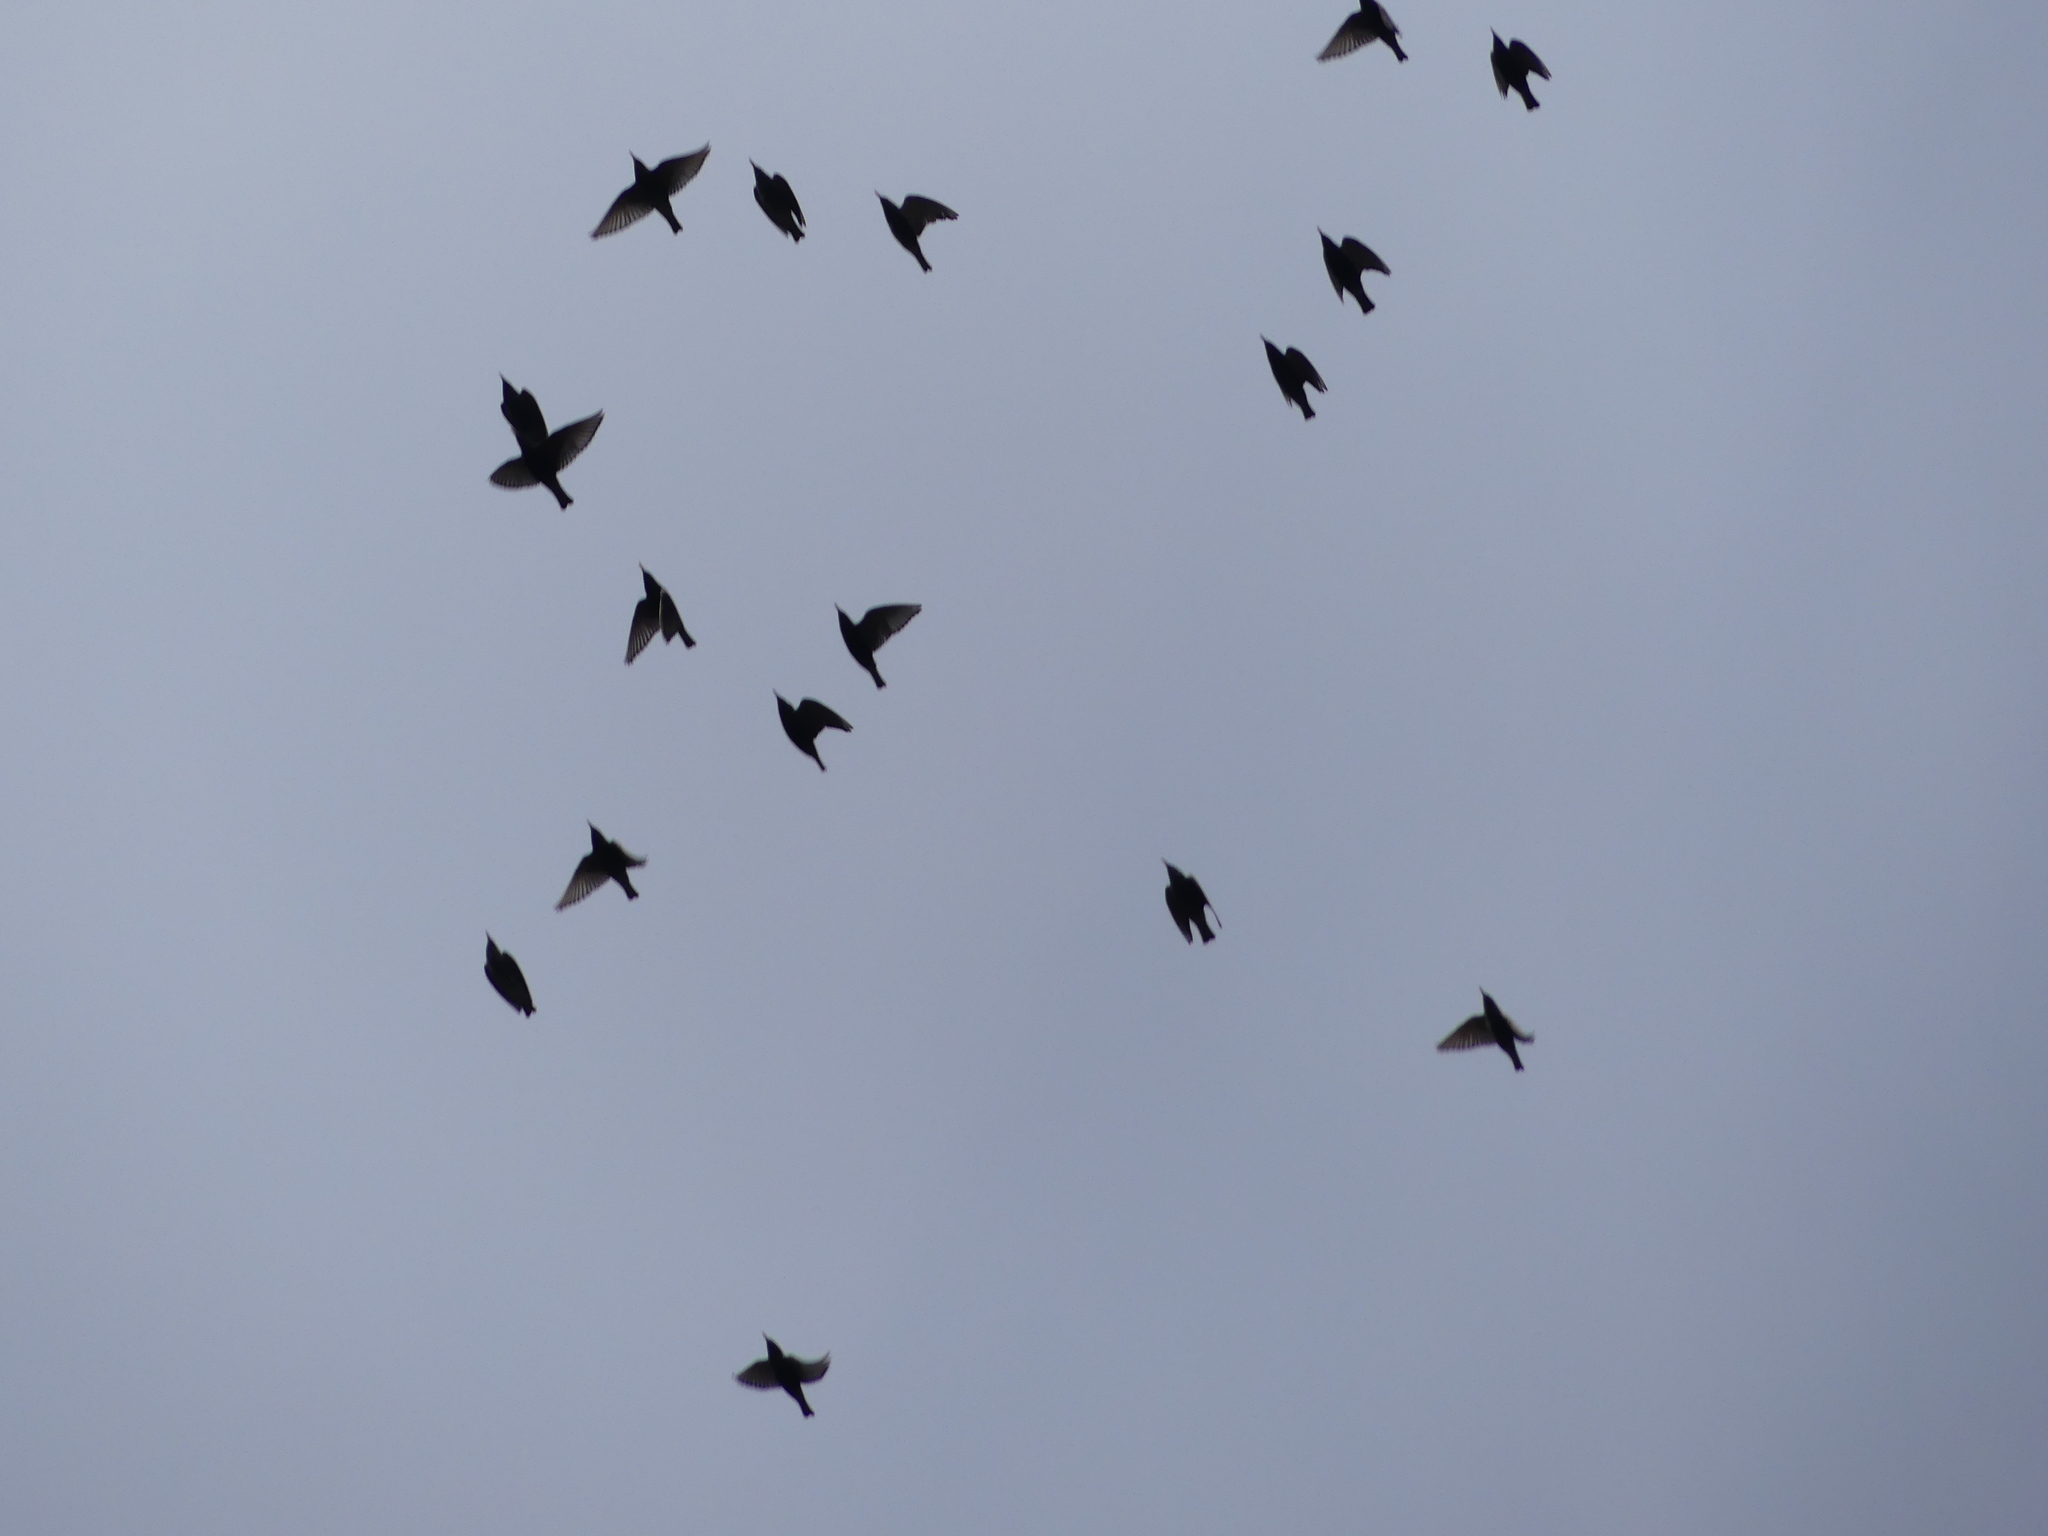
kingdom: Animalia
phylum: Chordata
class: Aves
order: Passeriformes
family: Sturnidae
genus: Sturnus
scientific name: Sturnus vulgaris
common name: Common starling
